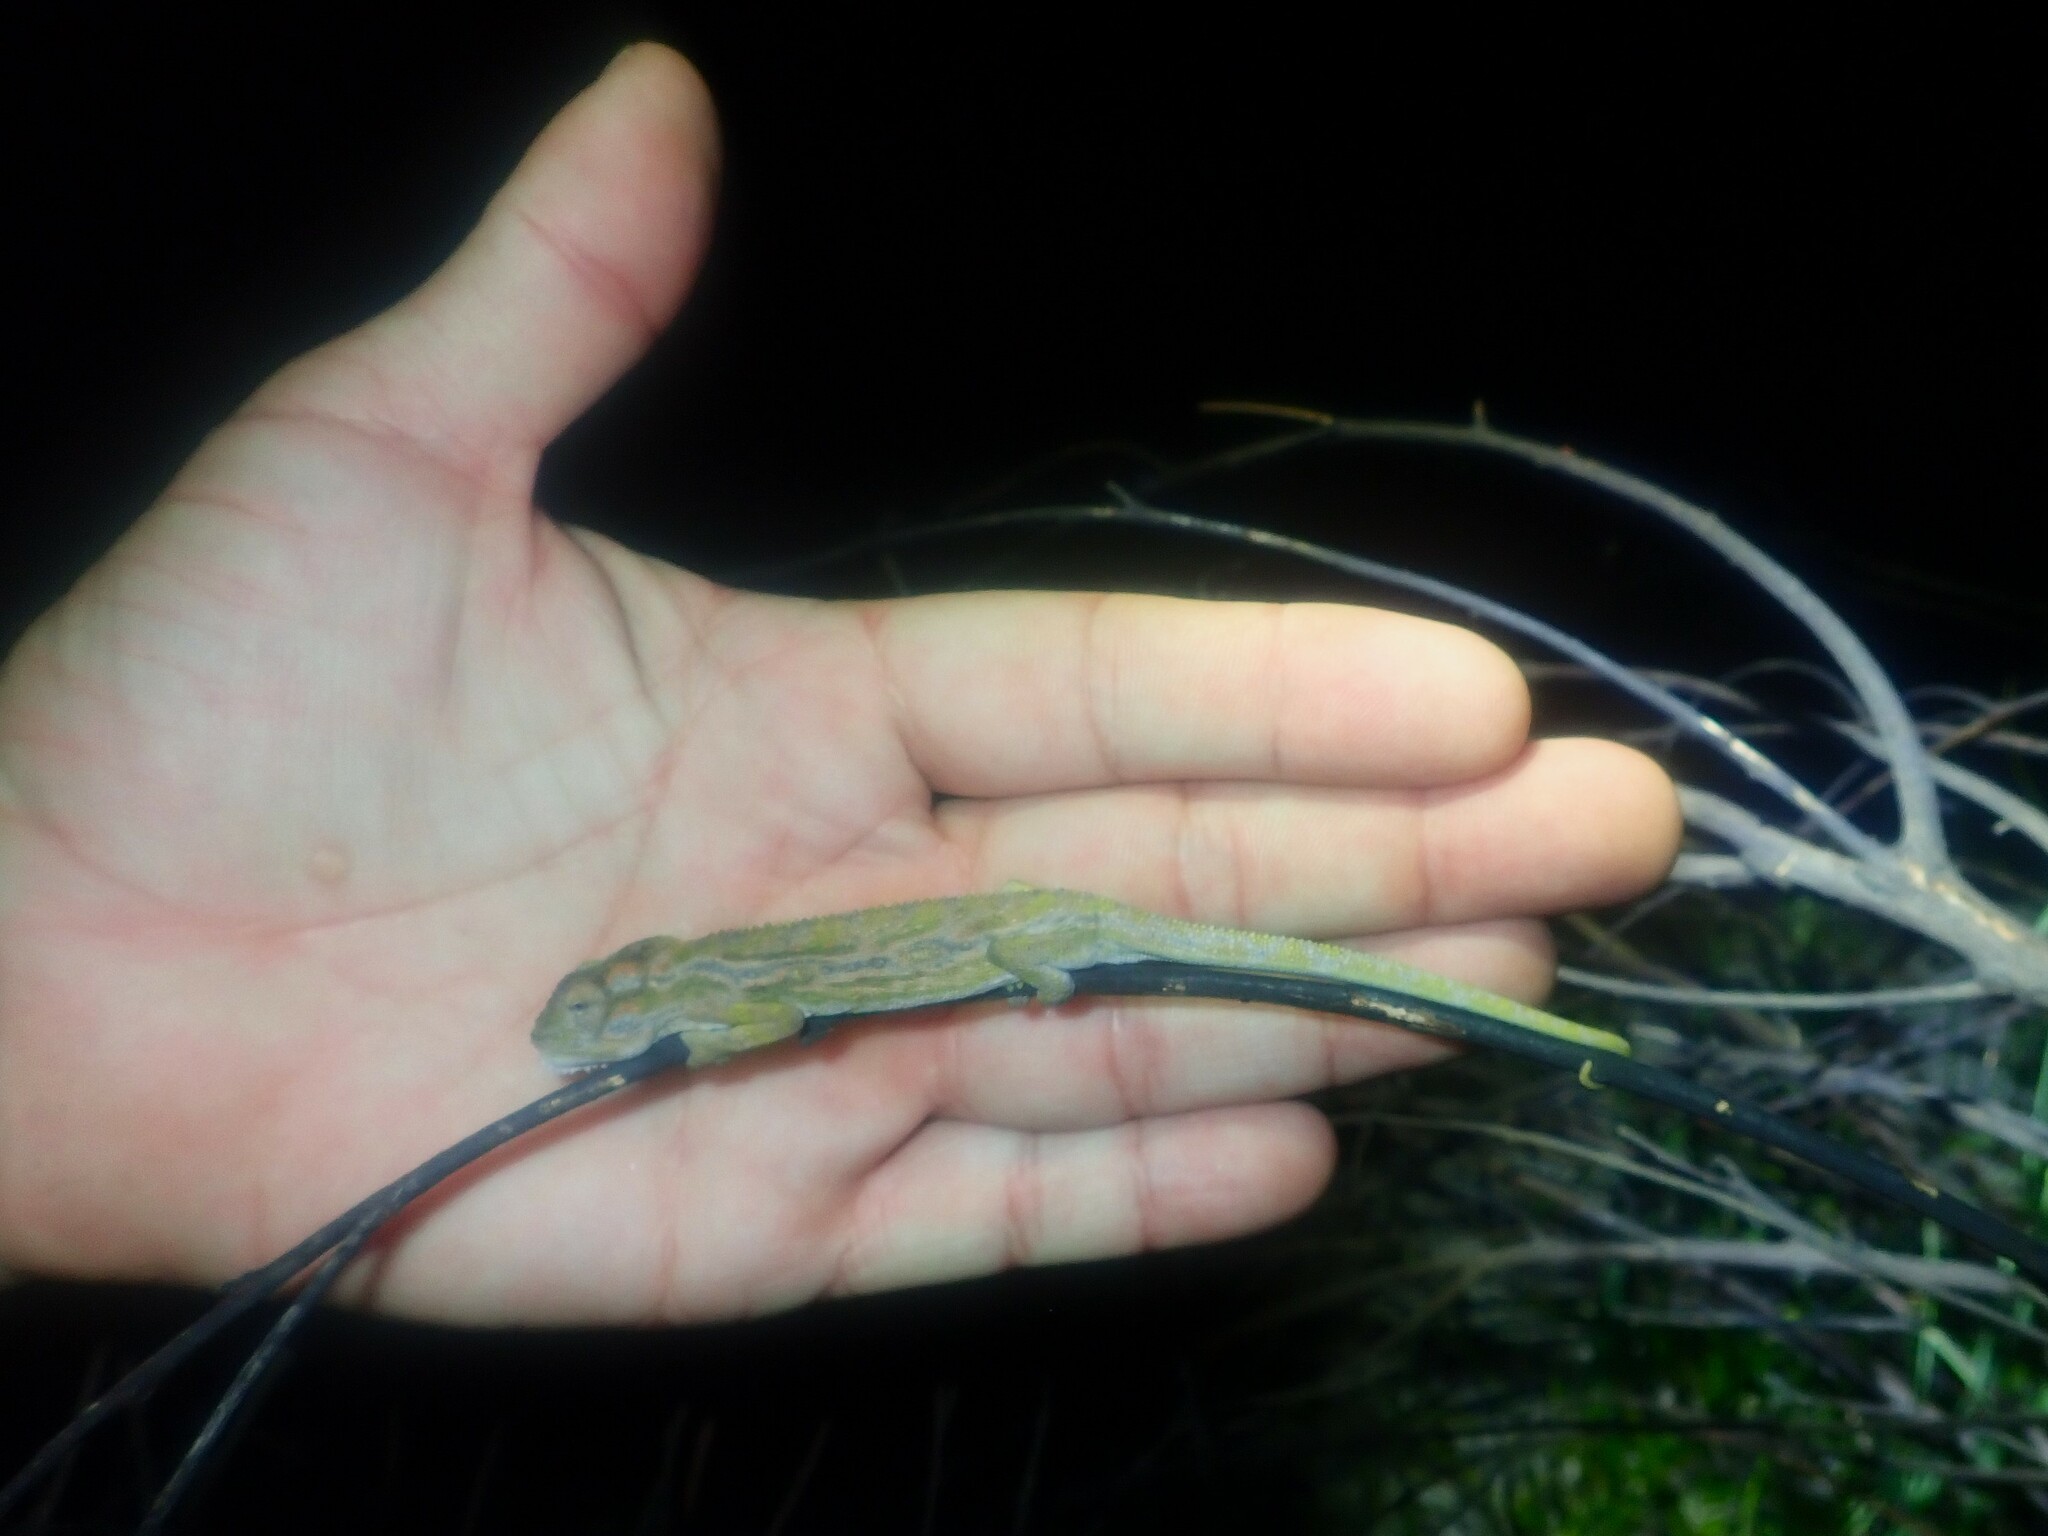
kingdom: Animalia
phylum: Chordata
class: Squamata
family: Chamaeleonidae
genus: Bradypodion
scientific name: Bradypodion pumilum
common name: Cape dwarf chameleon
